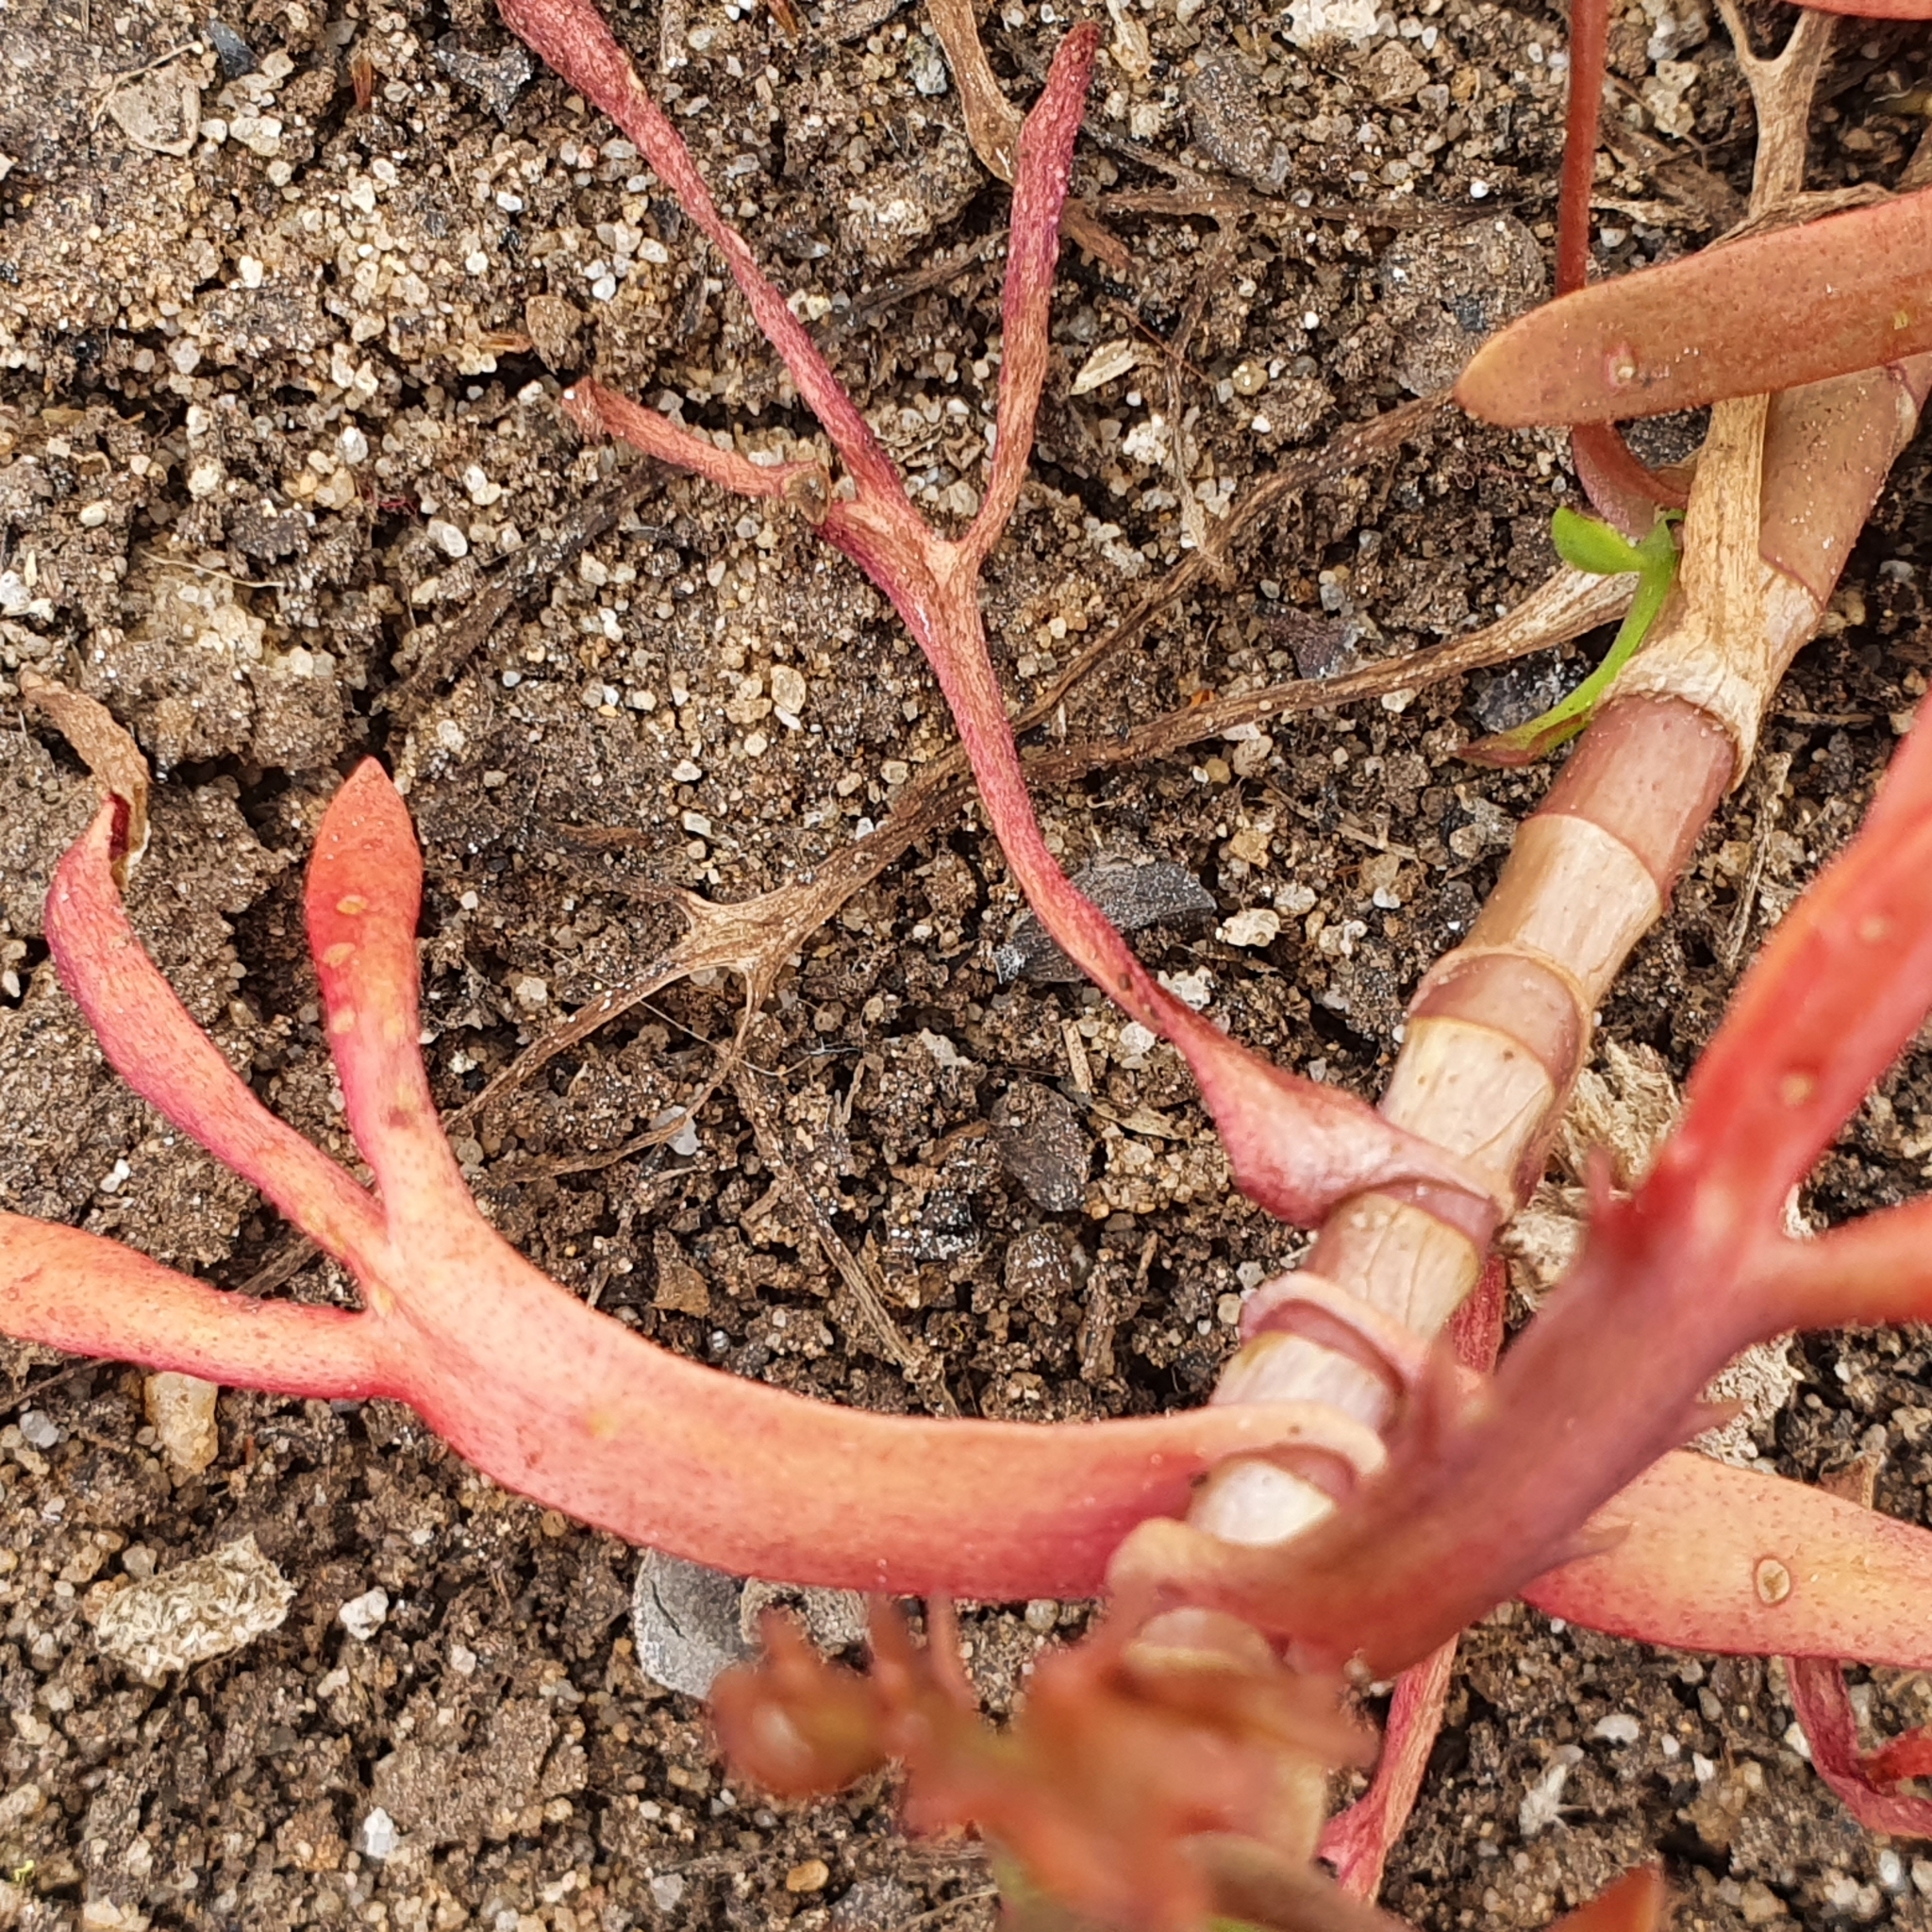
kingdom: Plantae
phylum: Tracheophyta
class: Magnoliopsida
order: Asterales
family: Asteraceae
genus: Cotula
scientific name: Cotula coronopifolia
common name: Buttonweed
